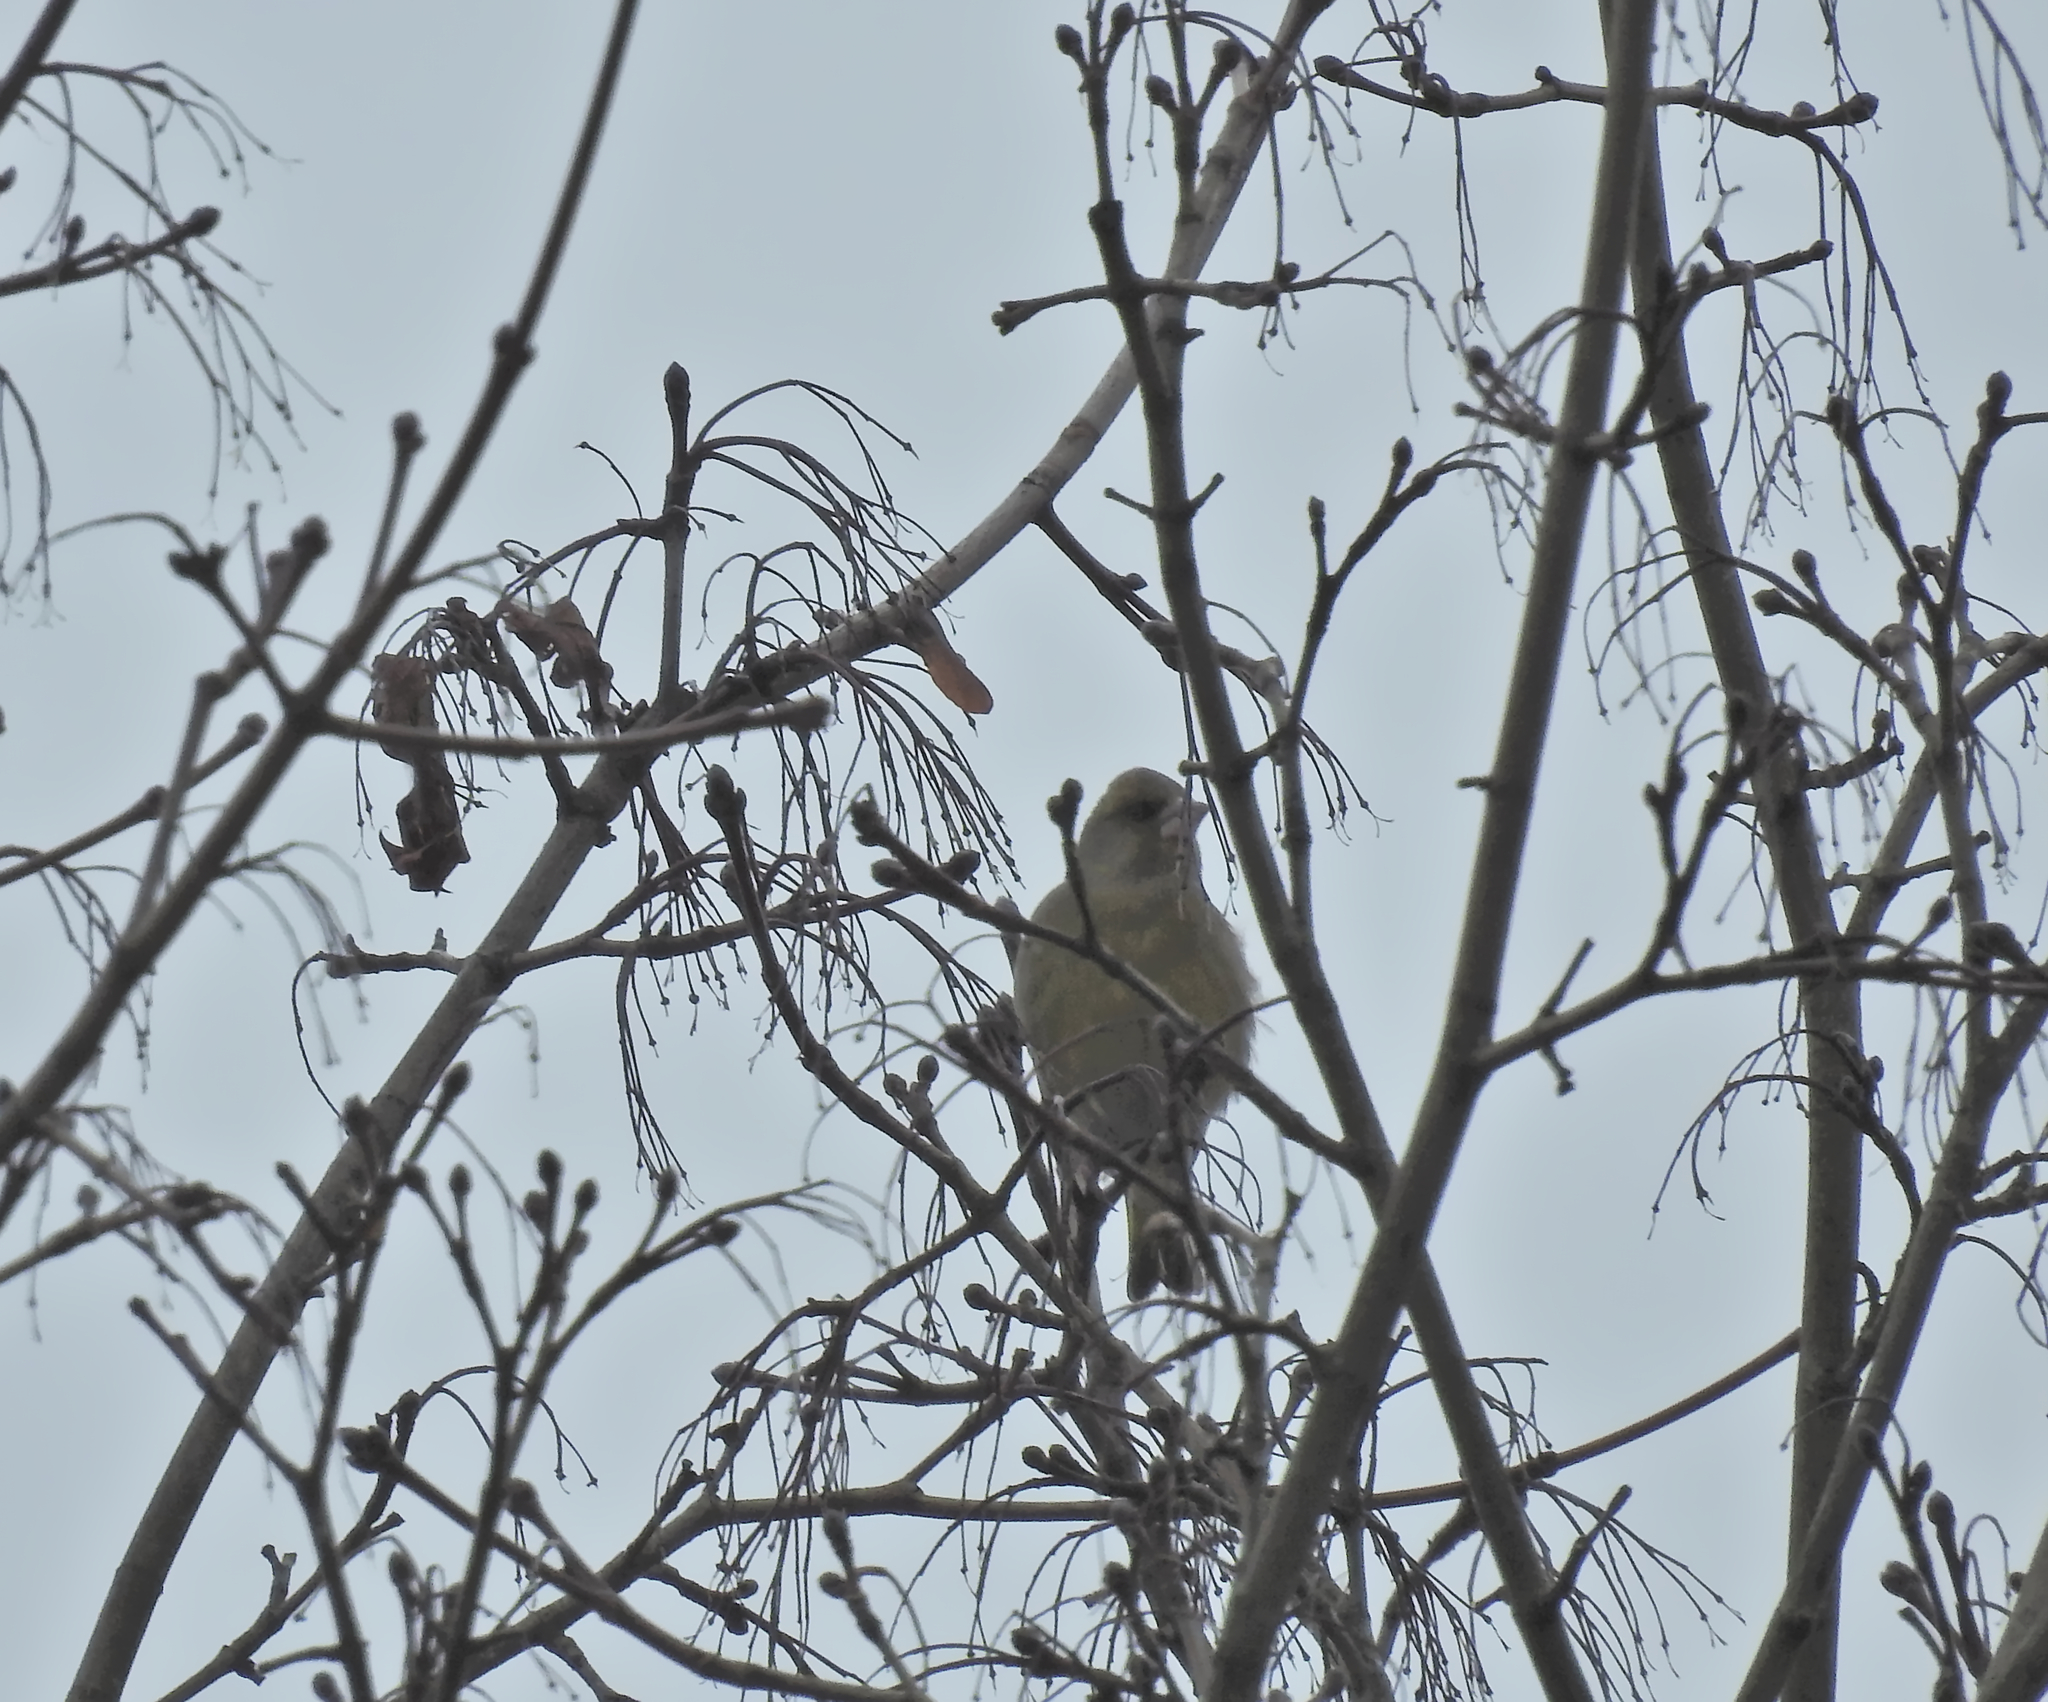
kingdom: Plantae
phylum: Tracheophyta
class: Liliopsida
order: Poales
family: Poaceae
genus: Chloris
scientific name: Chloris chloris
